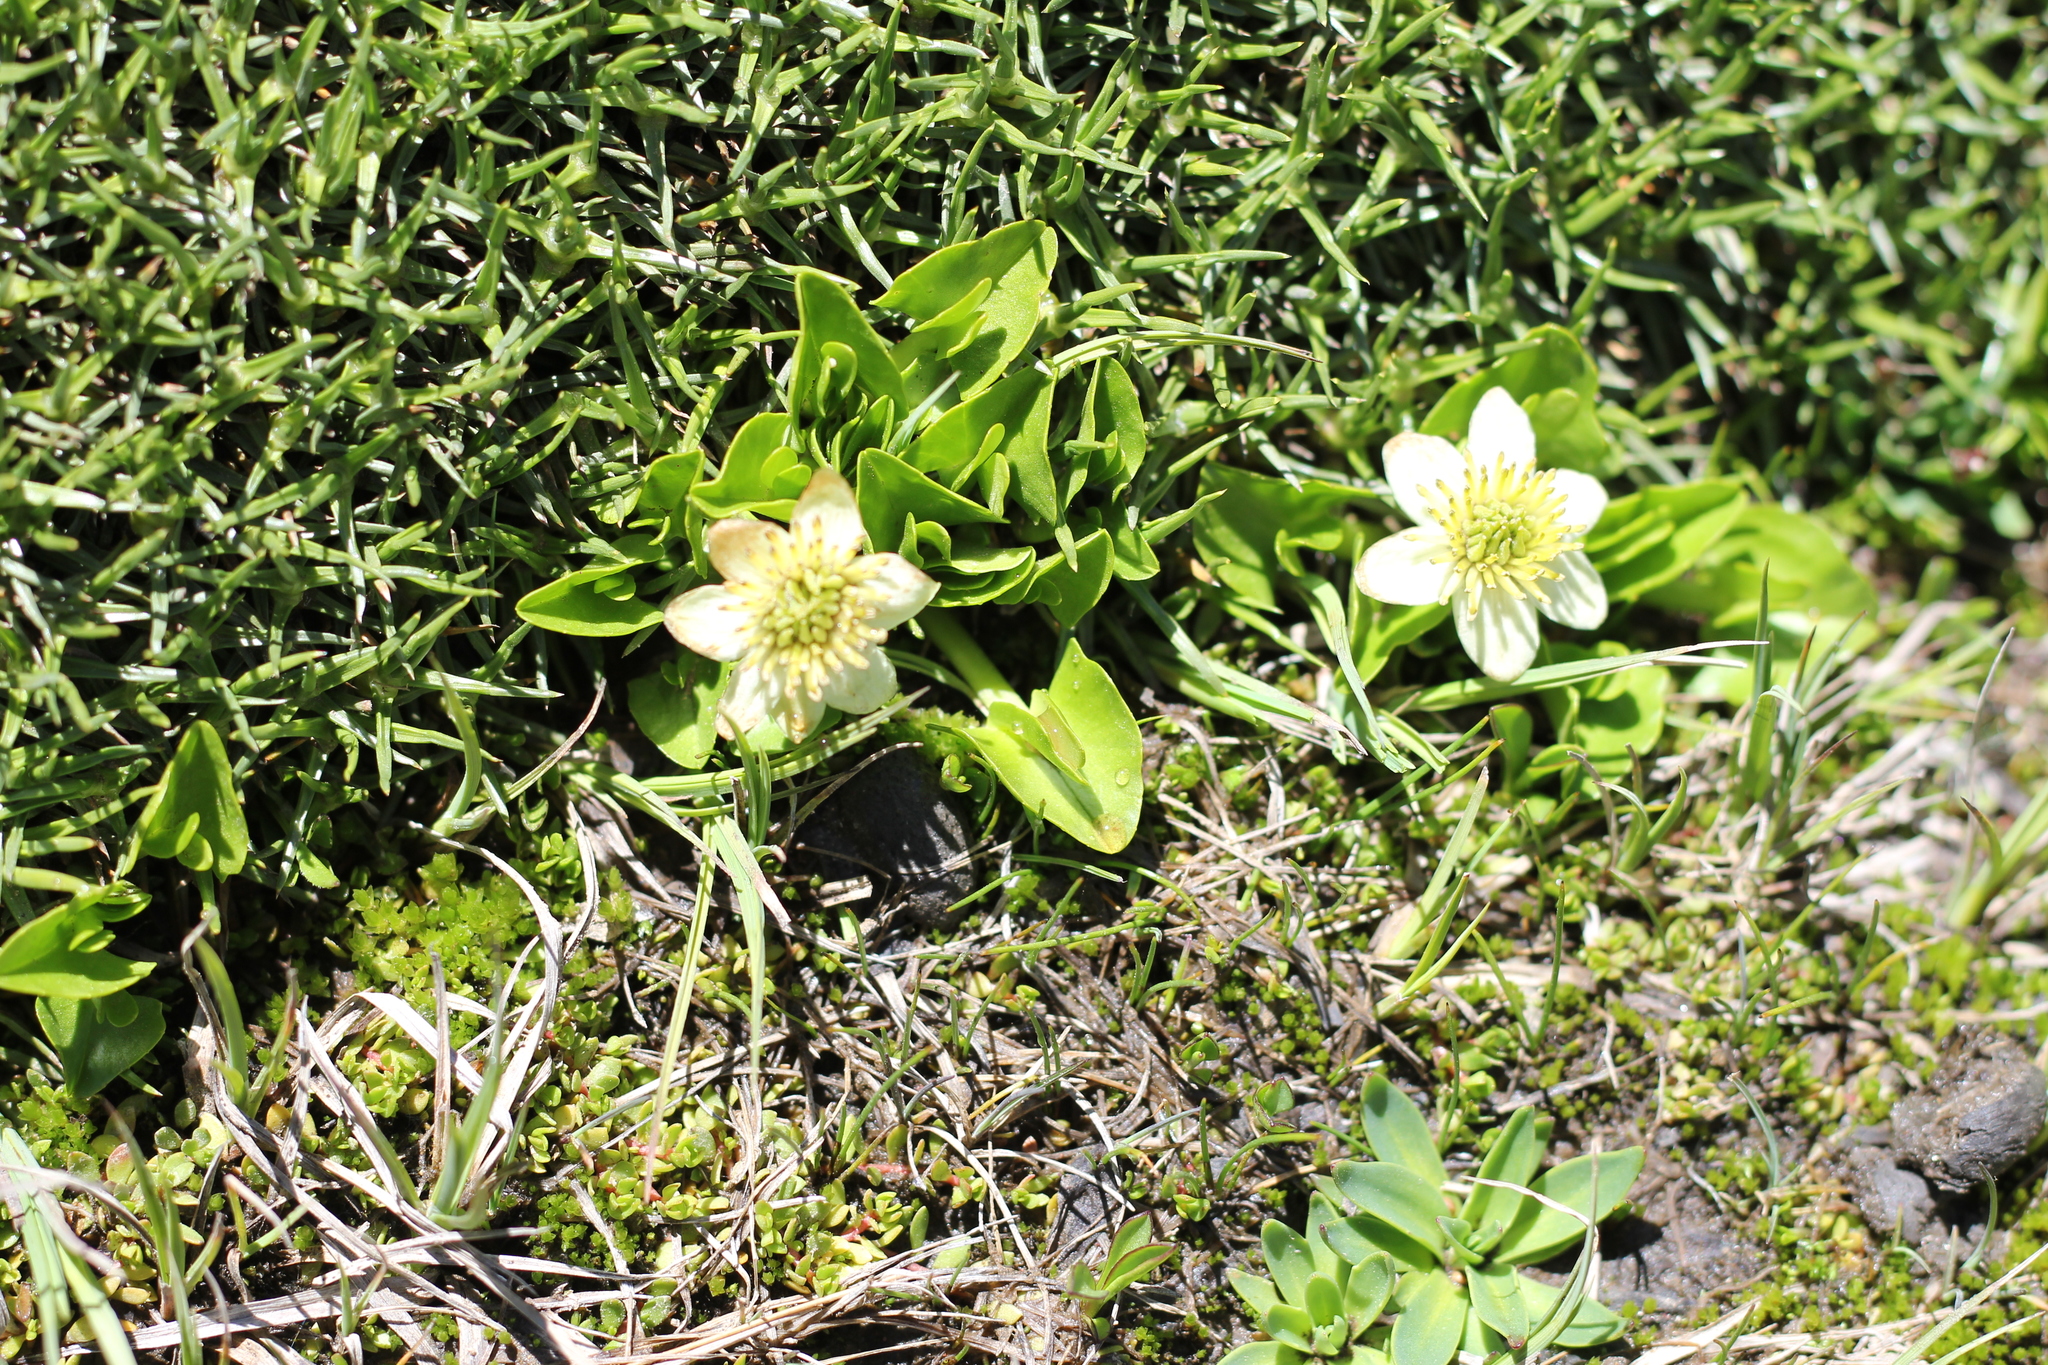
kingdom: Plantae
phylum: Tracheophyta
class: Magnoliopsida
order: Ranunculales
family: Ranunculaceae
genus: Caltha
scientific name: Caltha sagittata
